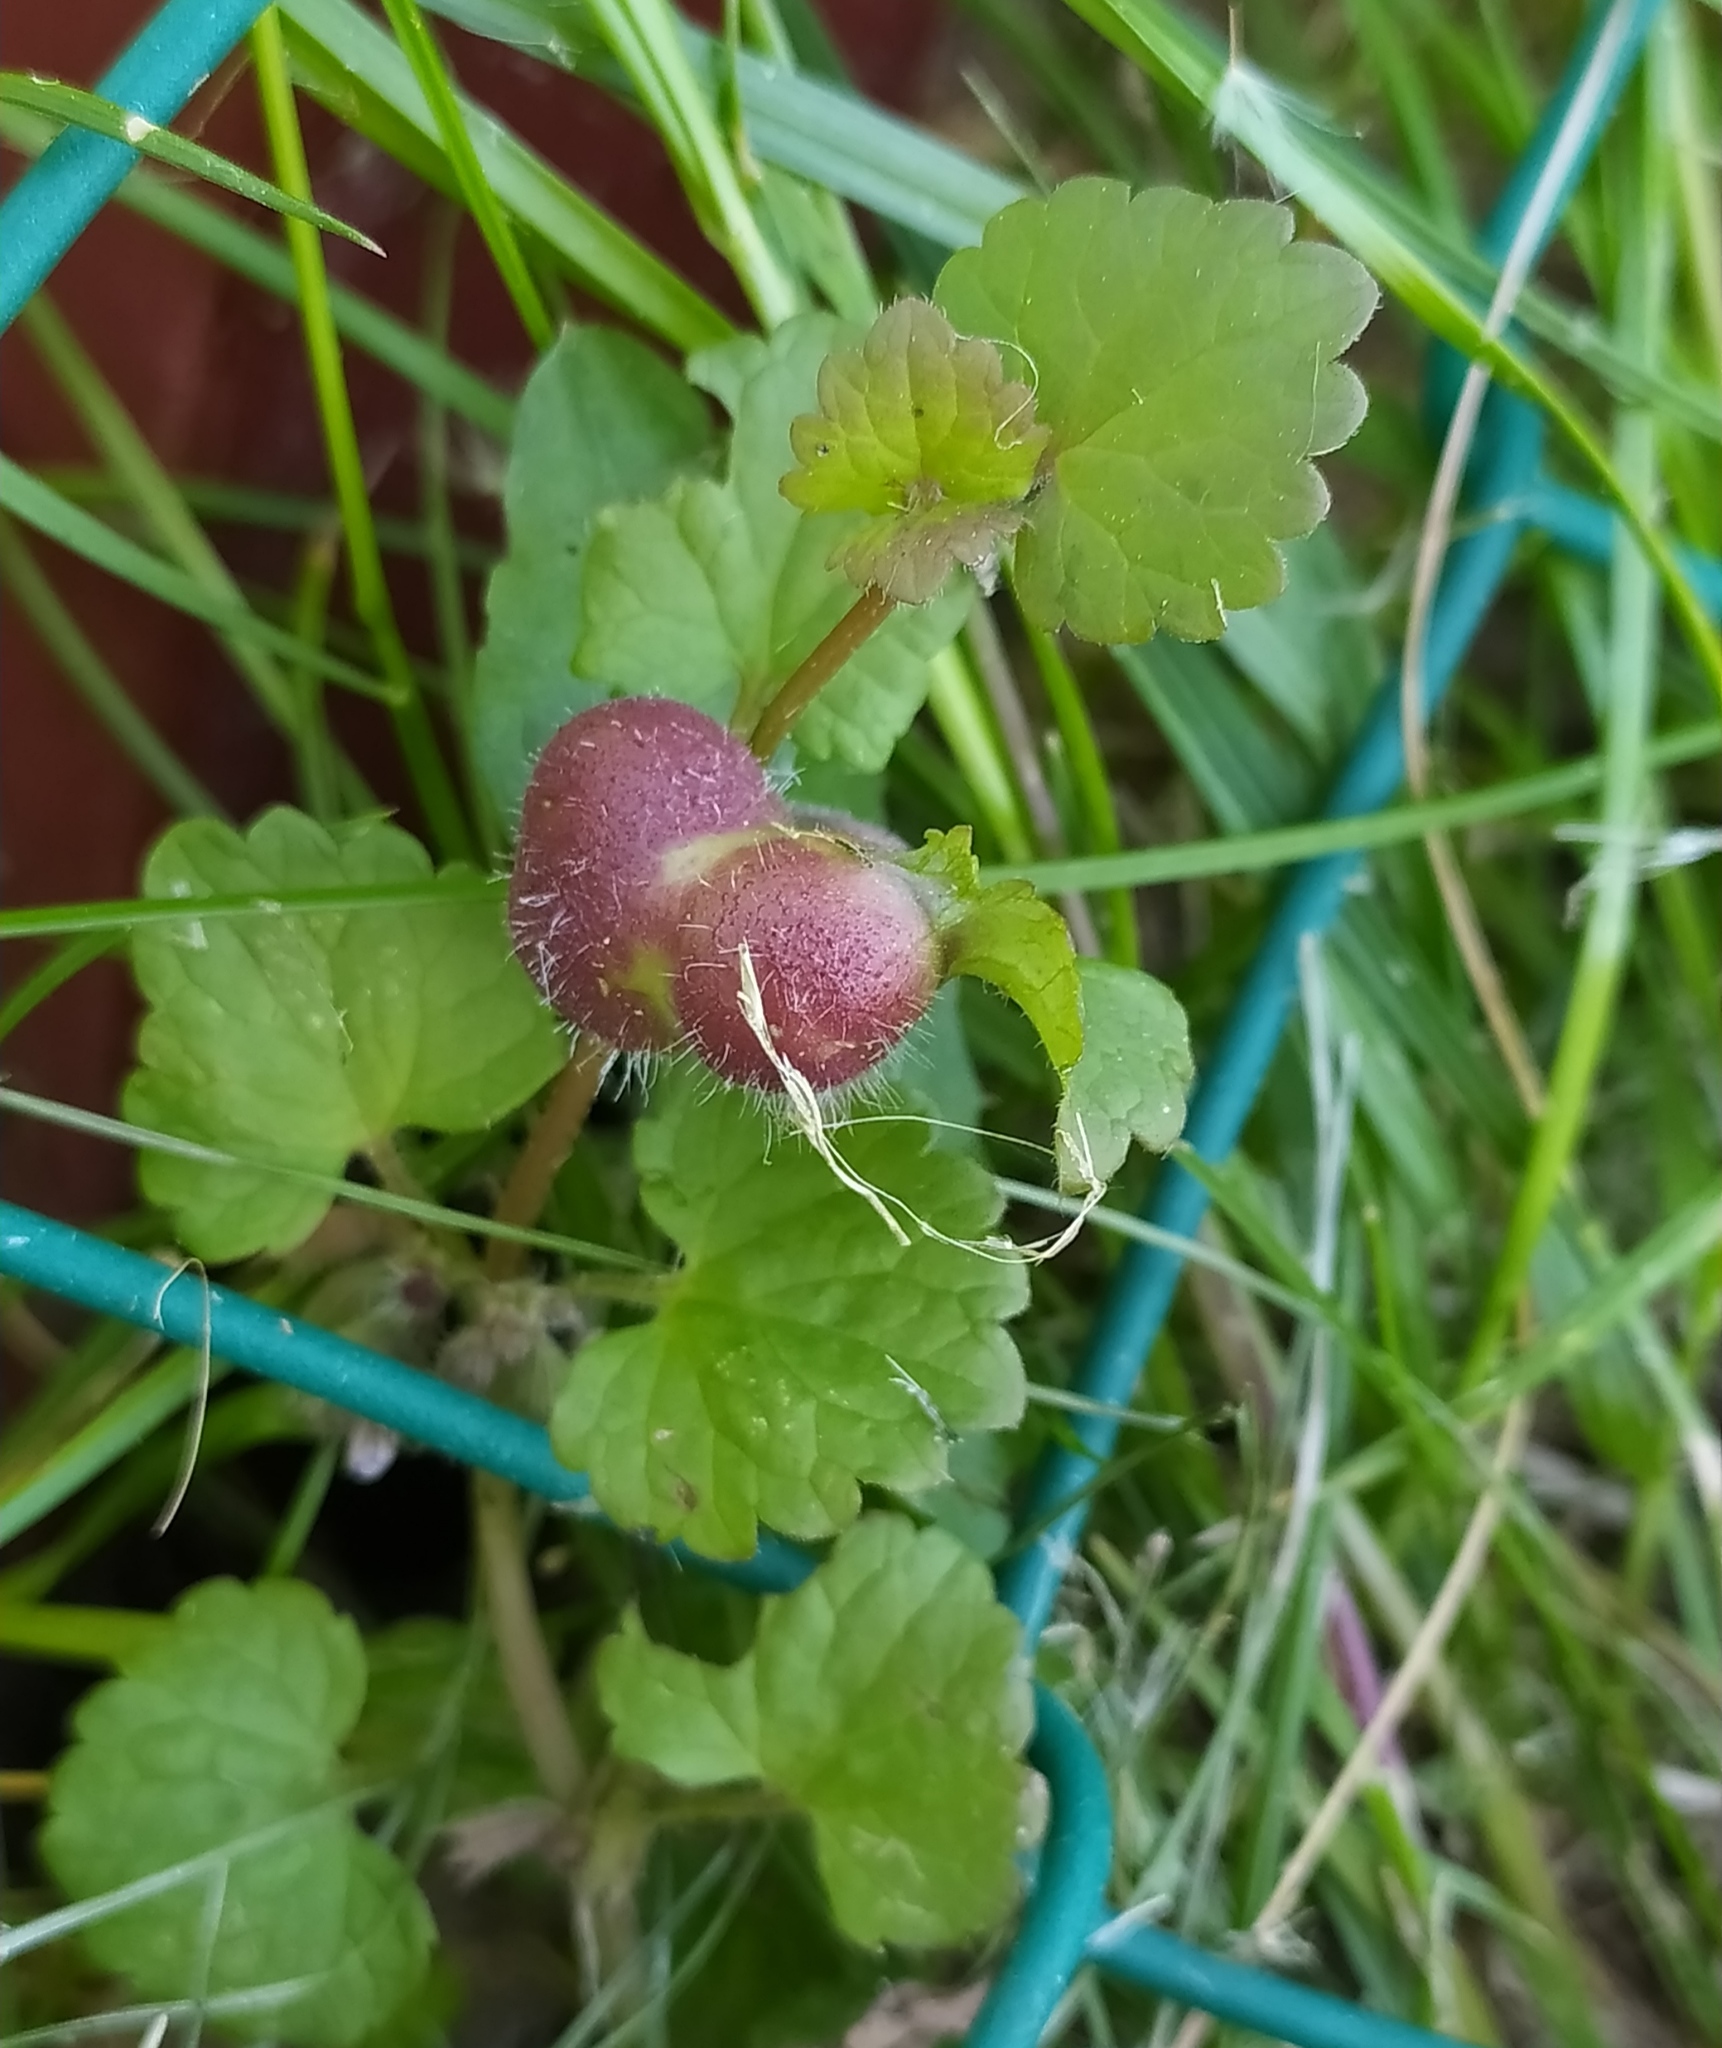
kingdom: Animalia
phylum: Arthropoda
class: Insecta
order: Hymenoptera
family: Cynipidae
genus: Liposthenes
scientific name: Liposthenes glechomae
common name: Gall wasp
